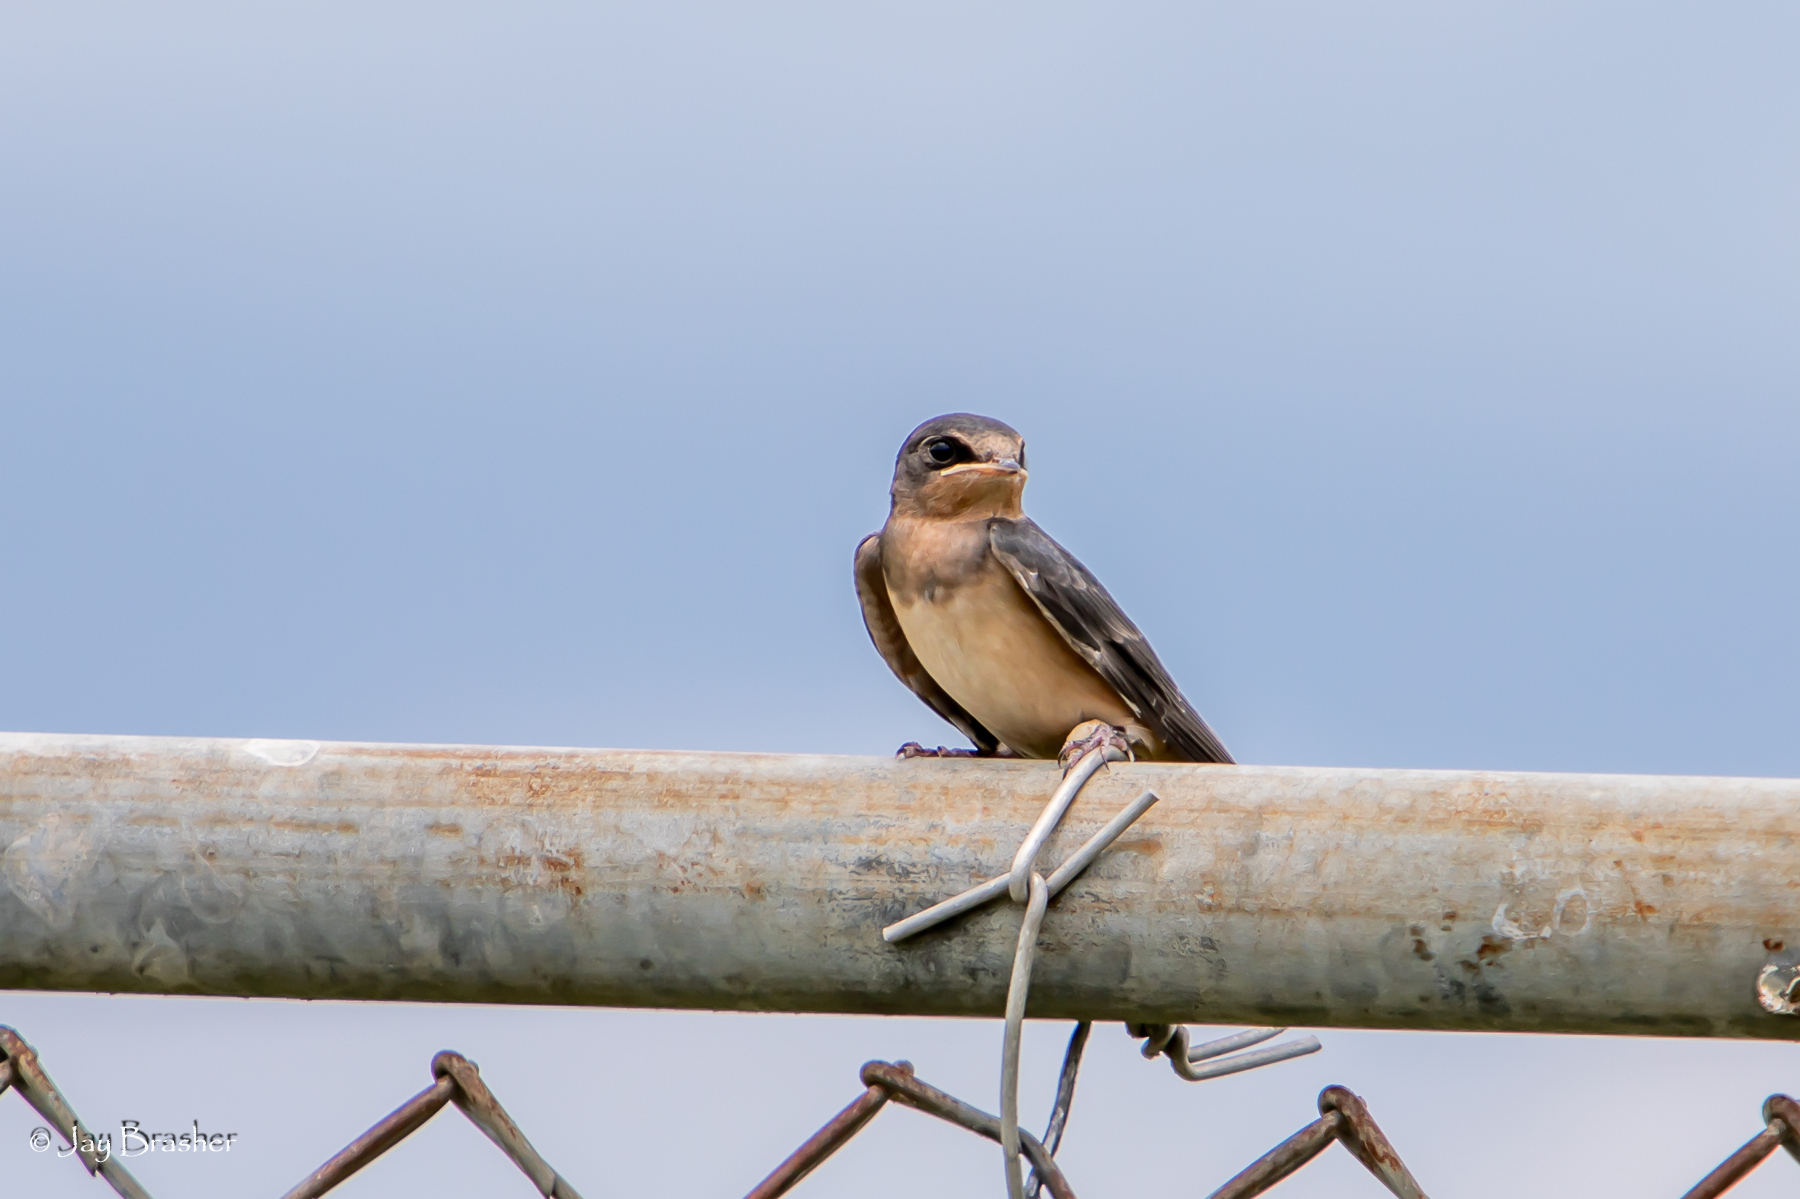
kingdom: Animalia
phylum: Chordata
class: Aves
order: Passeriformes
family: Hirundinidae
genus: Hirundo
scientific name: Hirundo rustica
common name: Barn swallow
